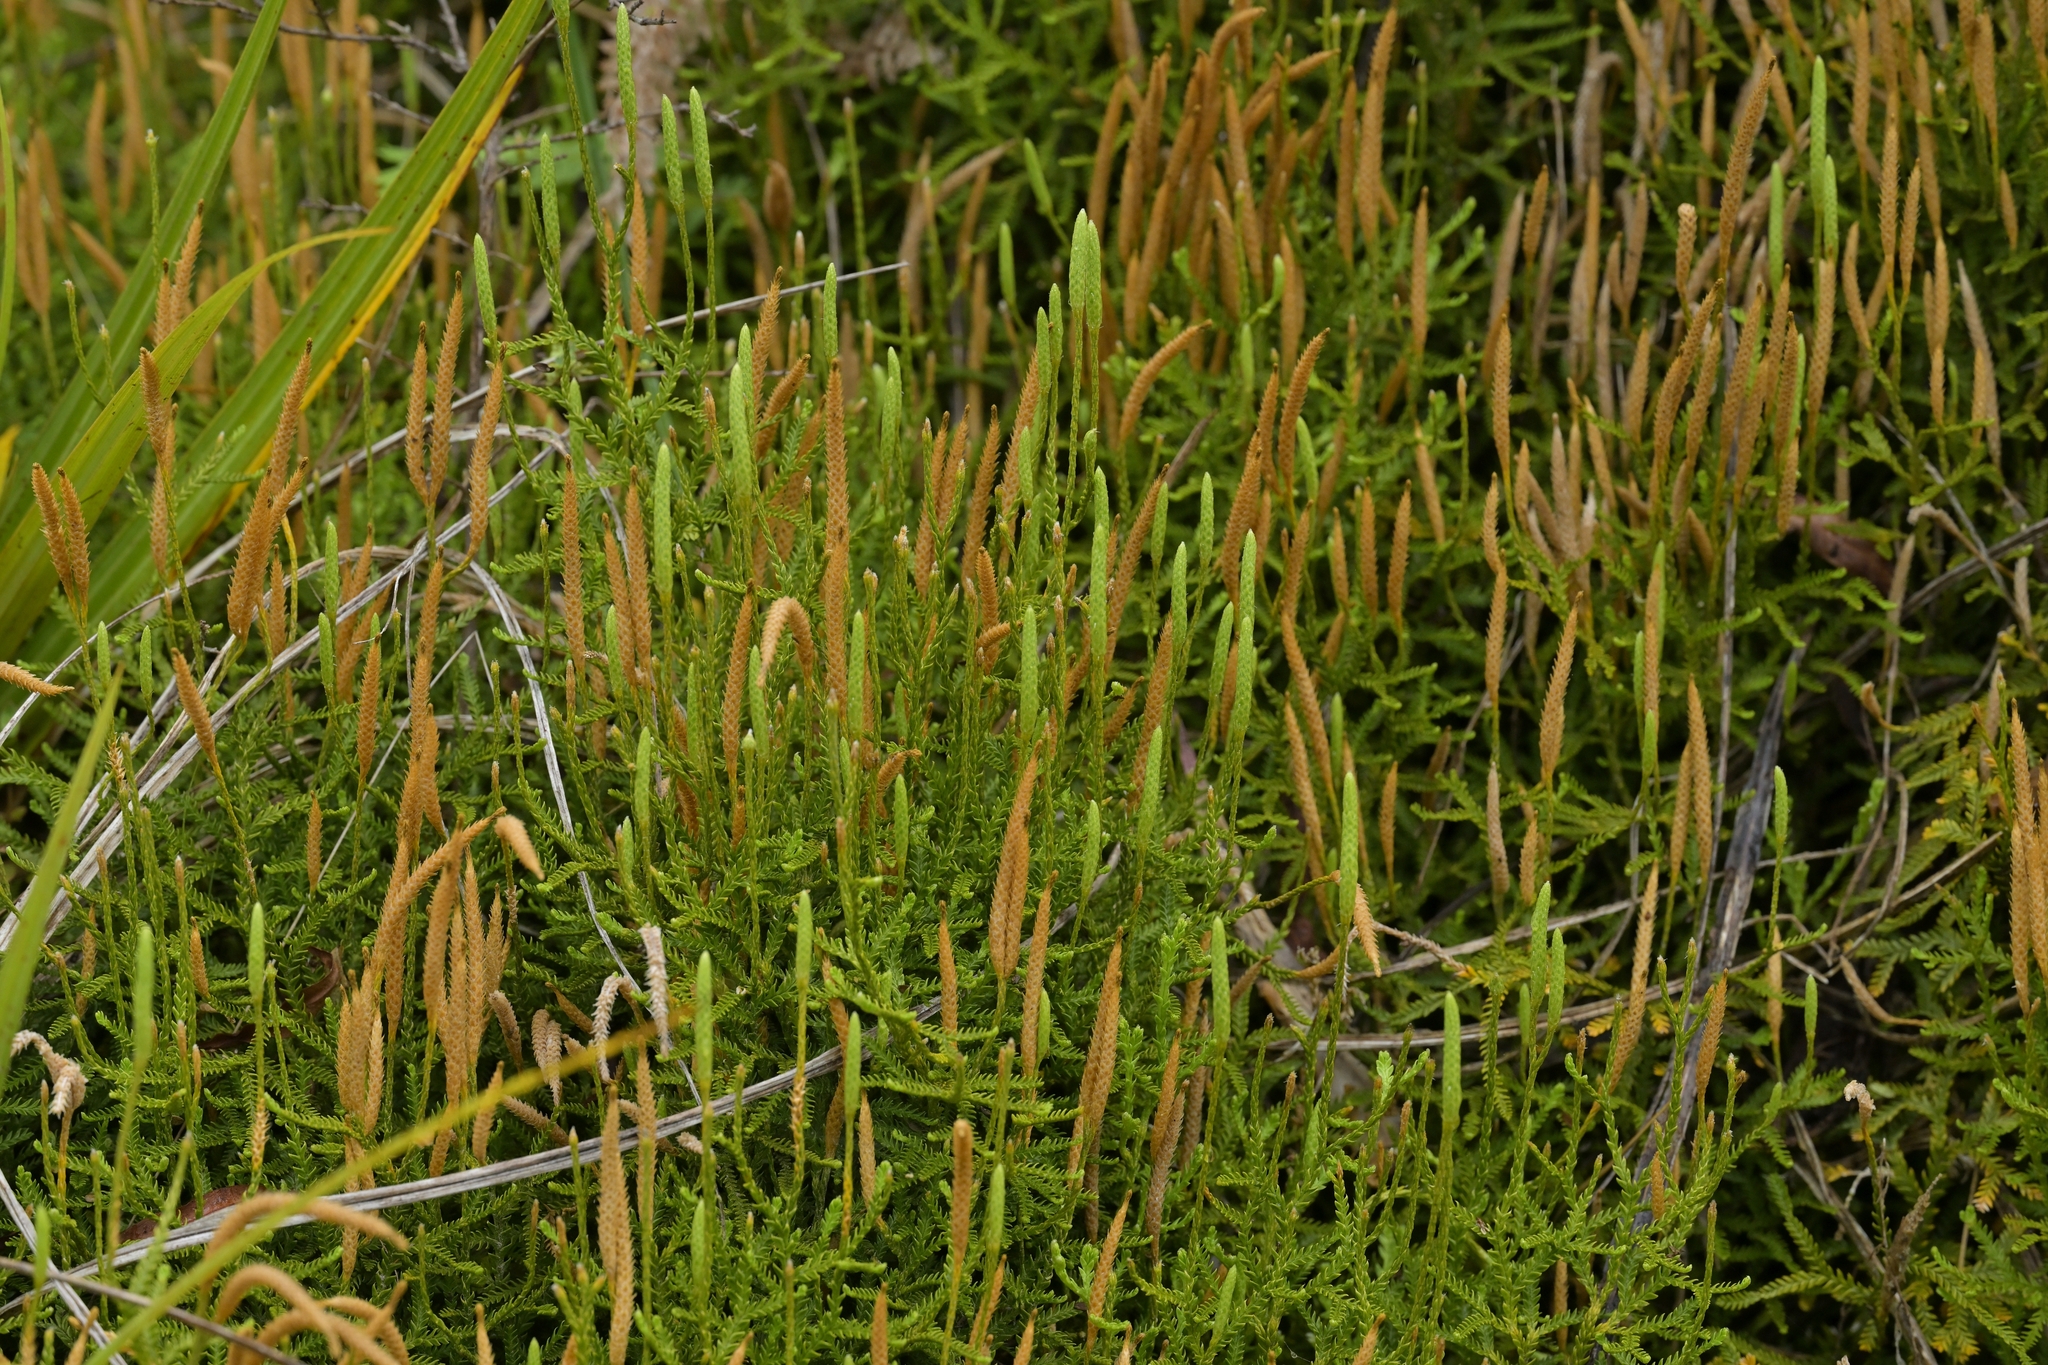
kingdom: Plantae
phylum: Tracheophyta
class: Lycopodiopsida
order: Lycopodiales
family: Lycopodiaceae
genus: Diphasium
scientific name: Diphasium scariosum
